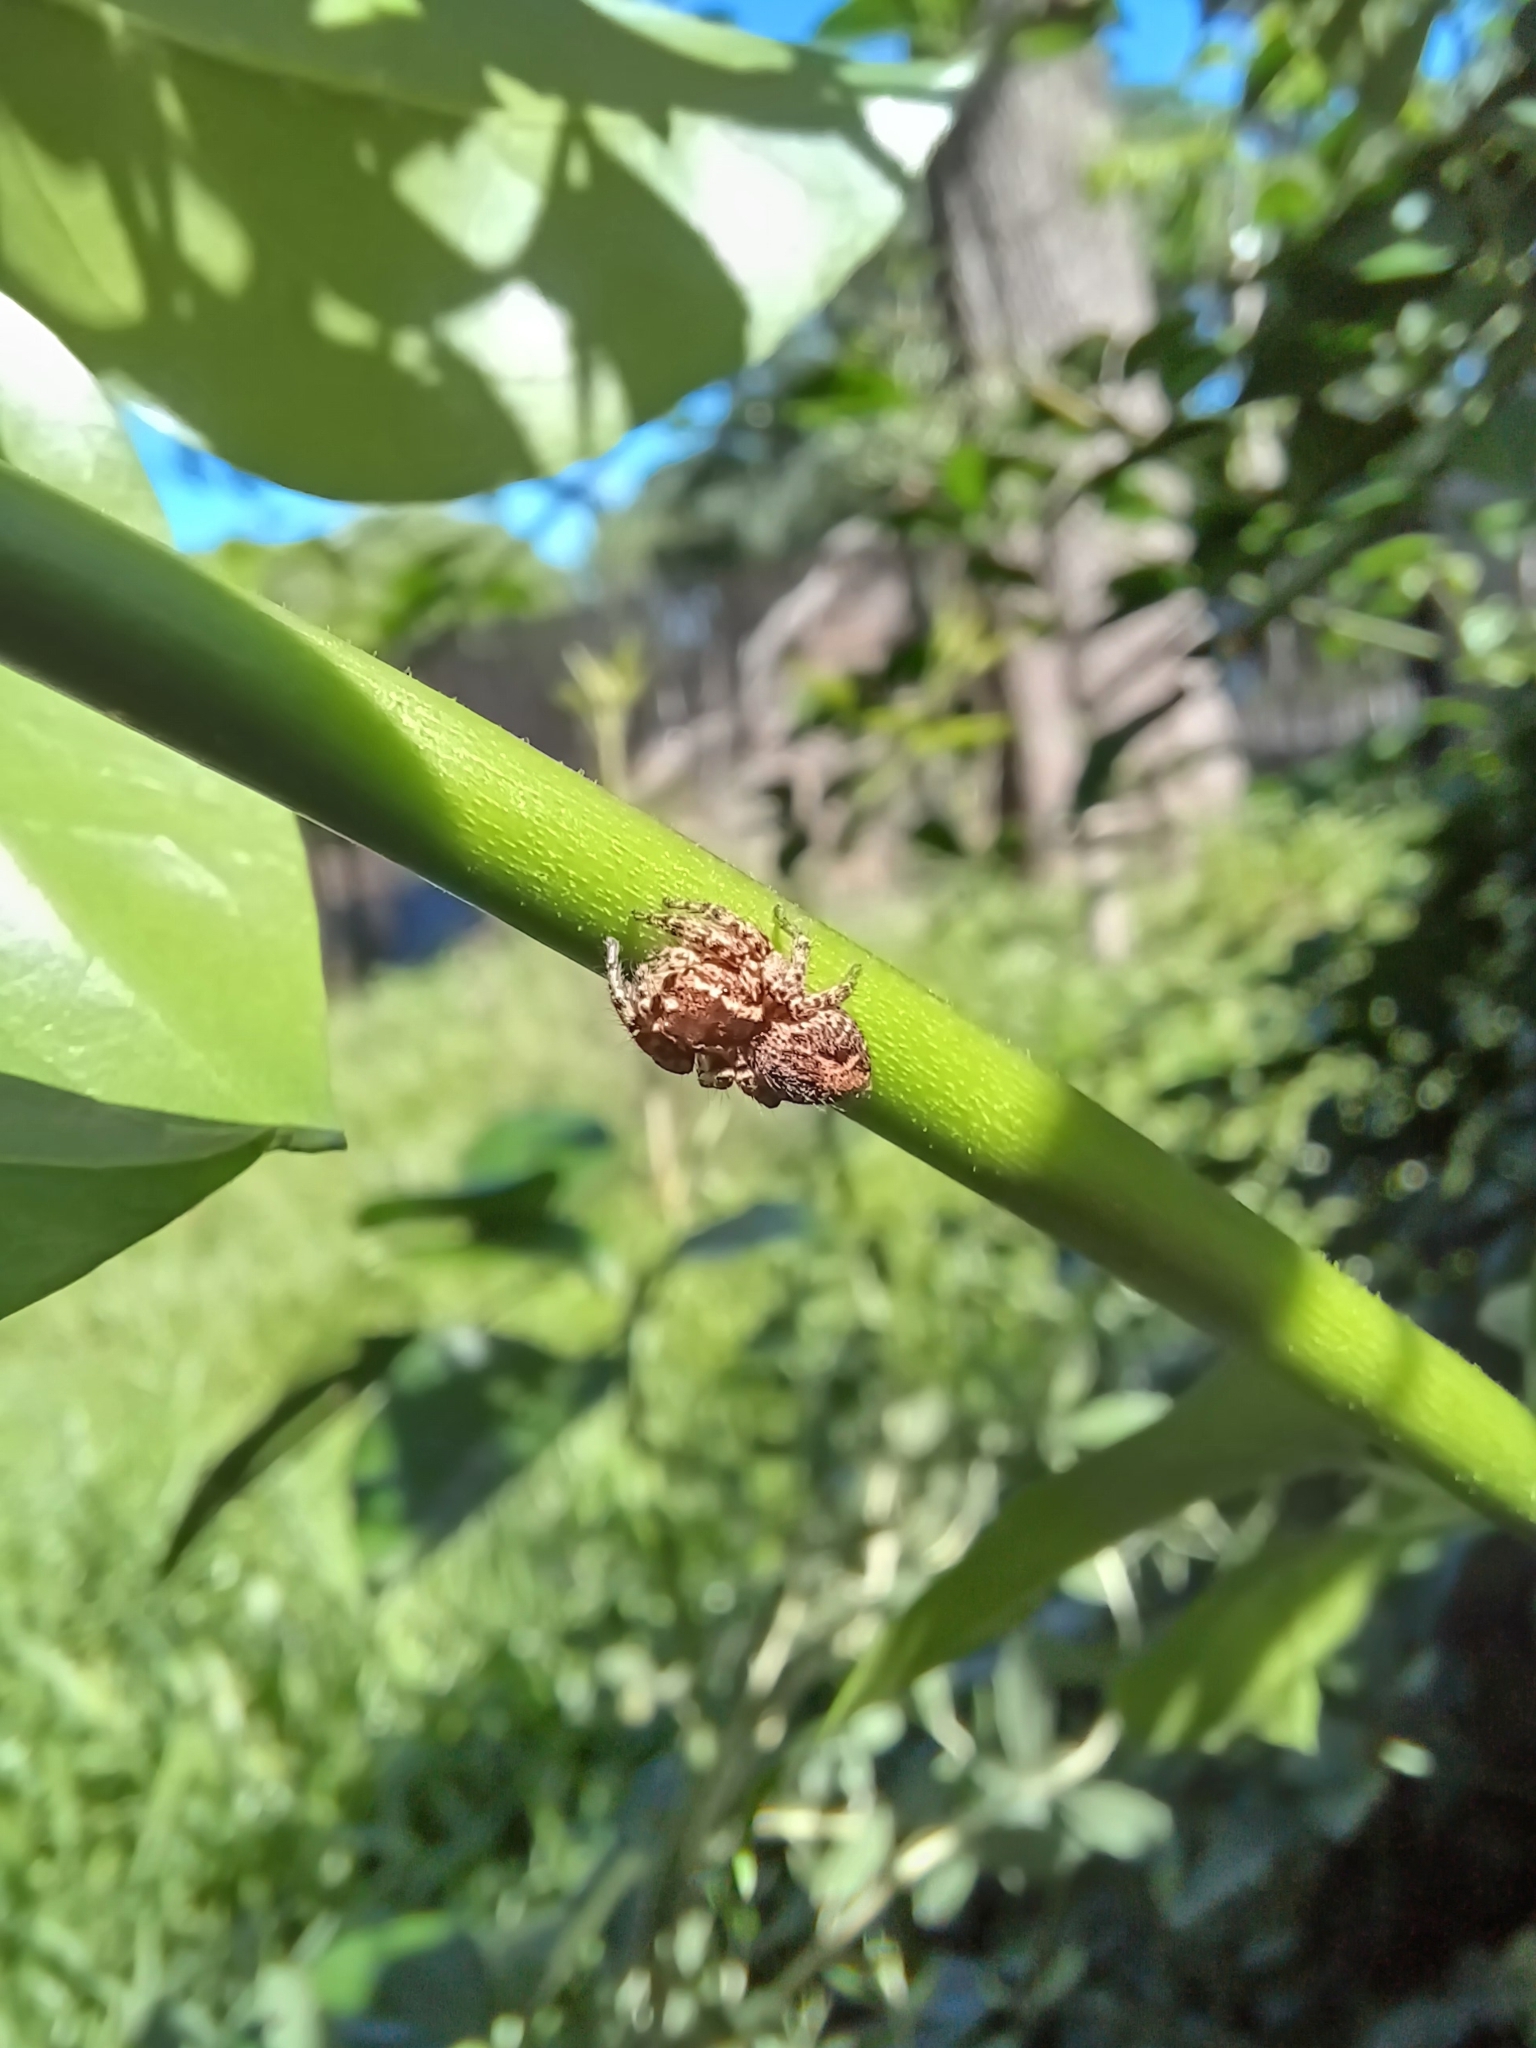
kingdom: Animalia
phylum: Arthropoda
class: Arachnida
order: Araneae
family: Salticidae
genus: Aphirape
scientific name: Aphirape flexa
